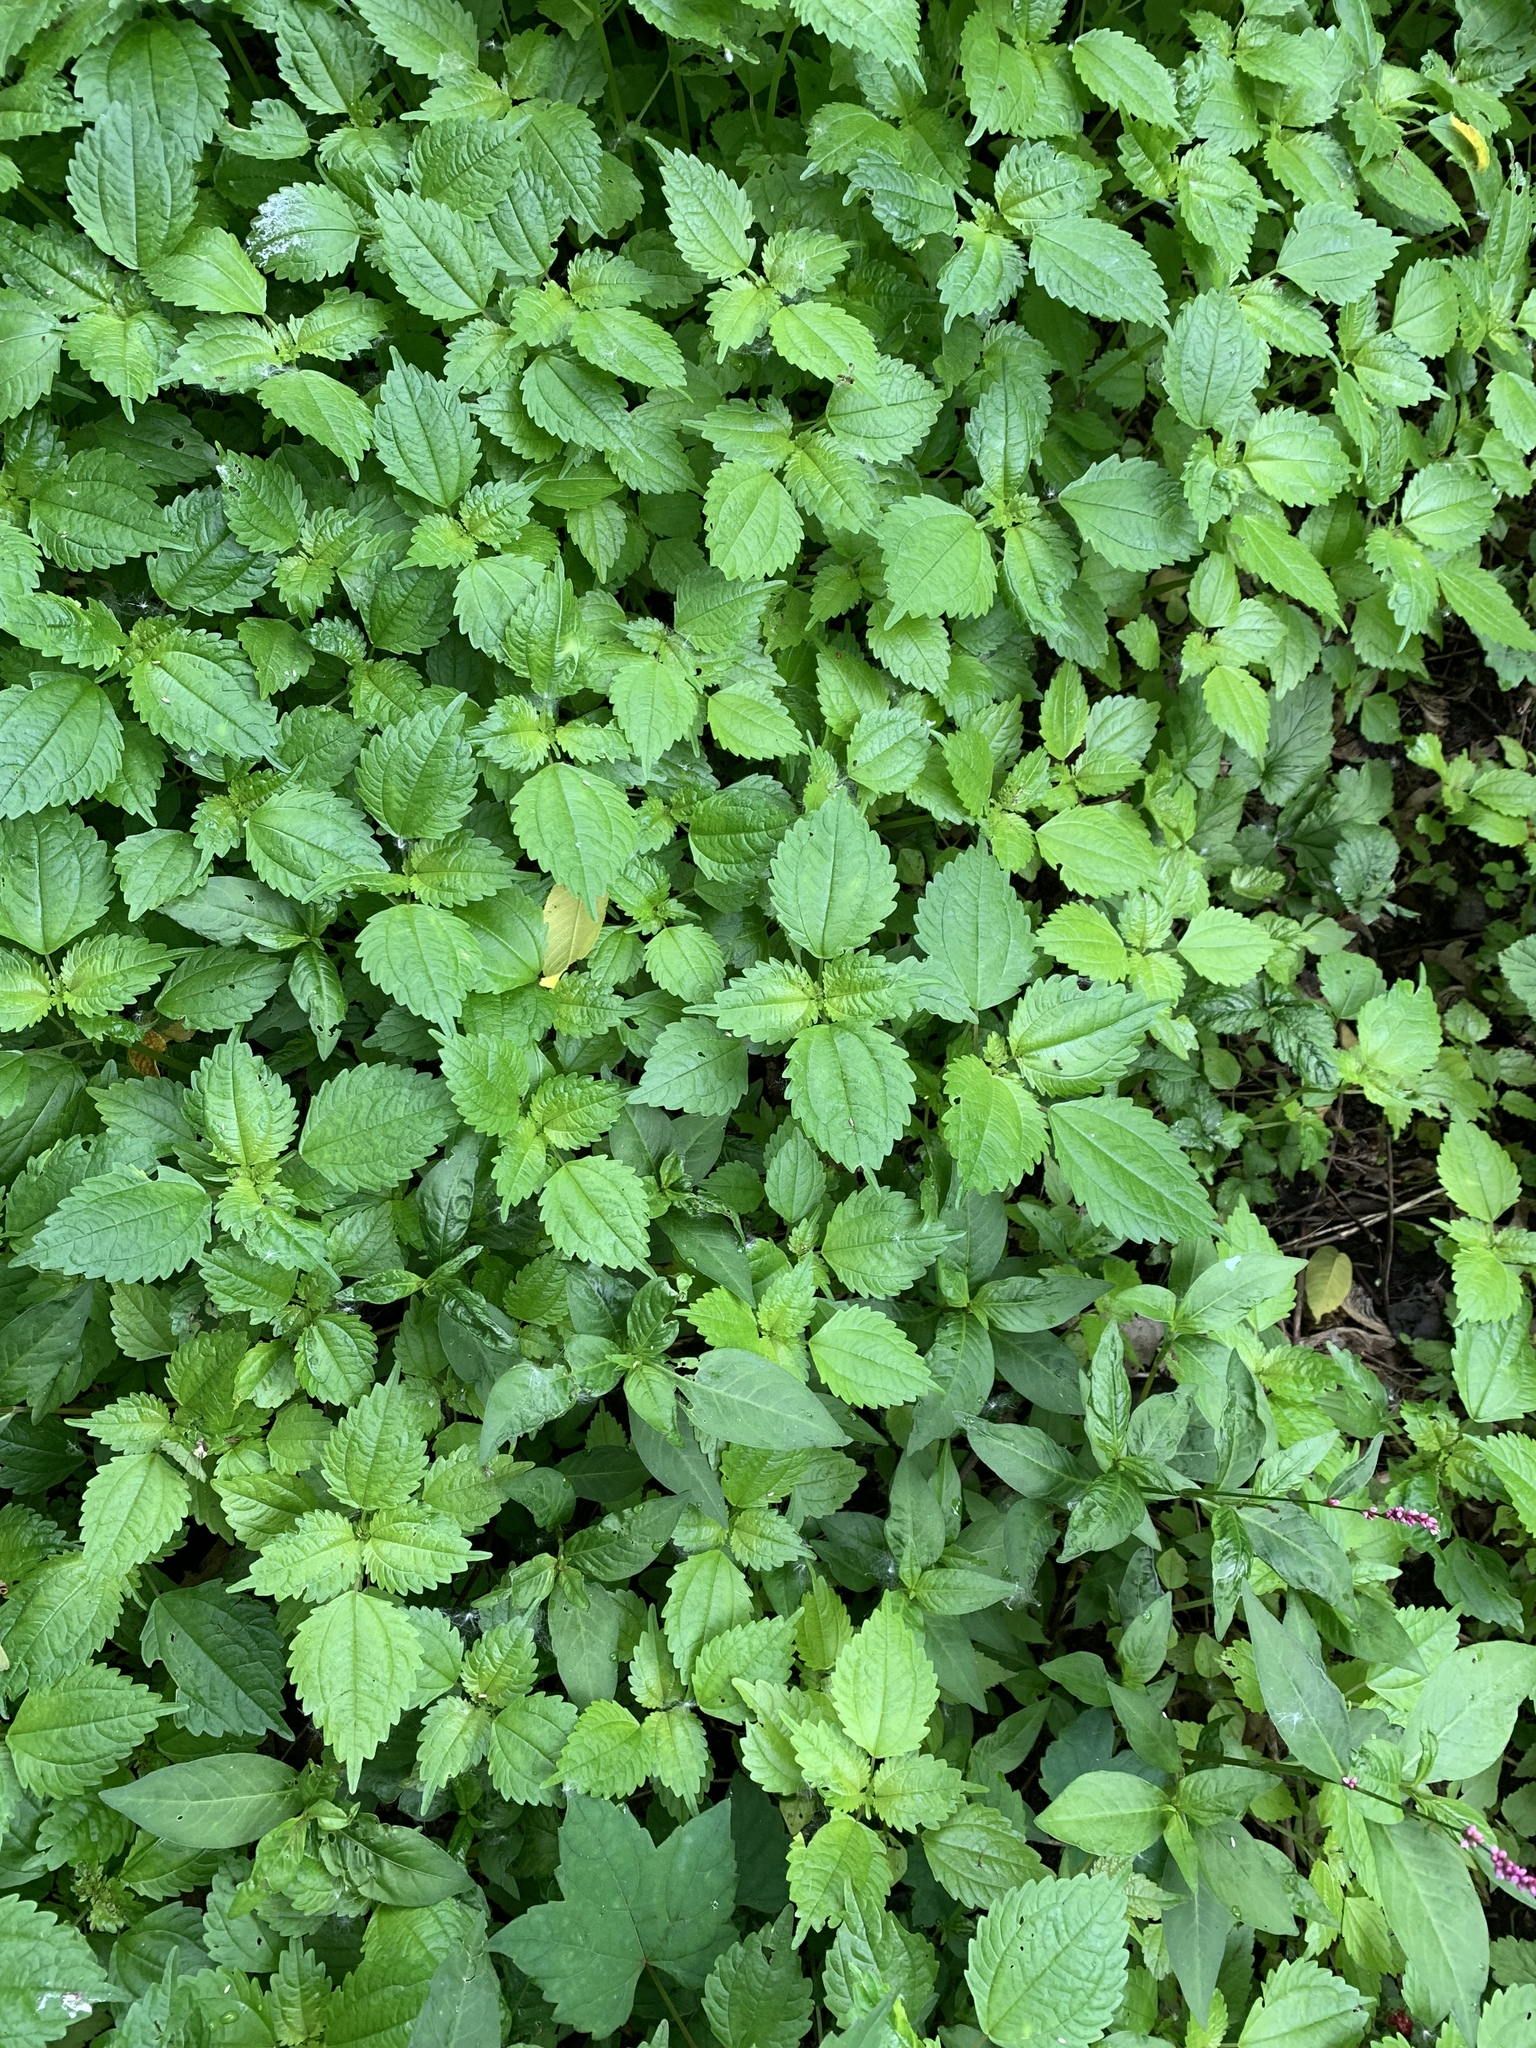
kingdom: Plantae
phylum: Tracheophyta
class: Magnoliopsida
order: Rosales
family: Urticaceae
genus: Pilea
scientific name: Pilea pumila
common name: Clearweed
